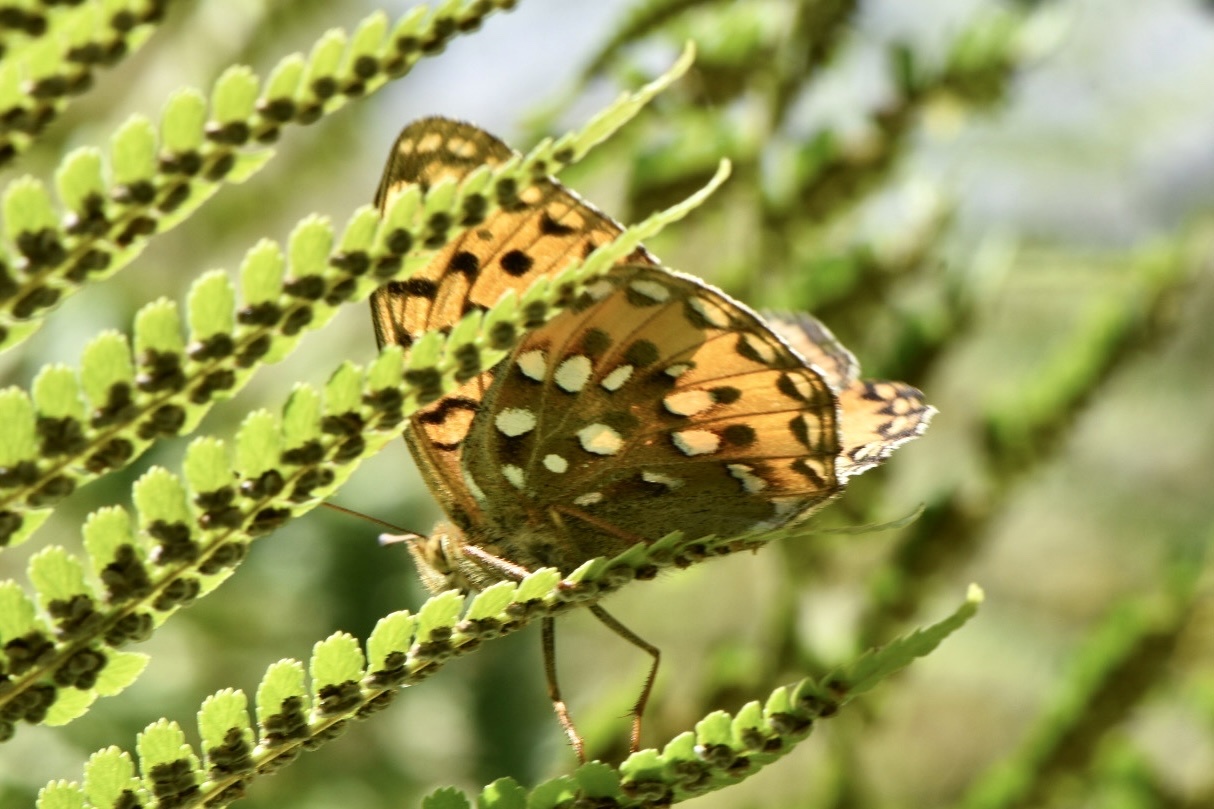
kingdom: Animalia
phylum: Arthropoda
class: Insecta
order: Lepidoptera
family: Nymphalidae
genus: Speyeria
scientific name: Speyeria aglaja
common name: Dark green fritillary
